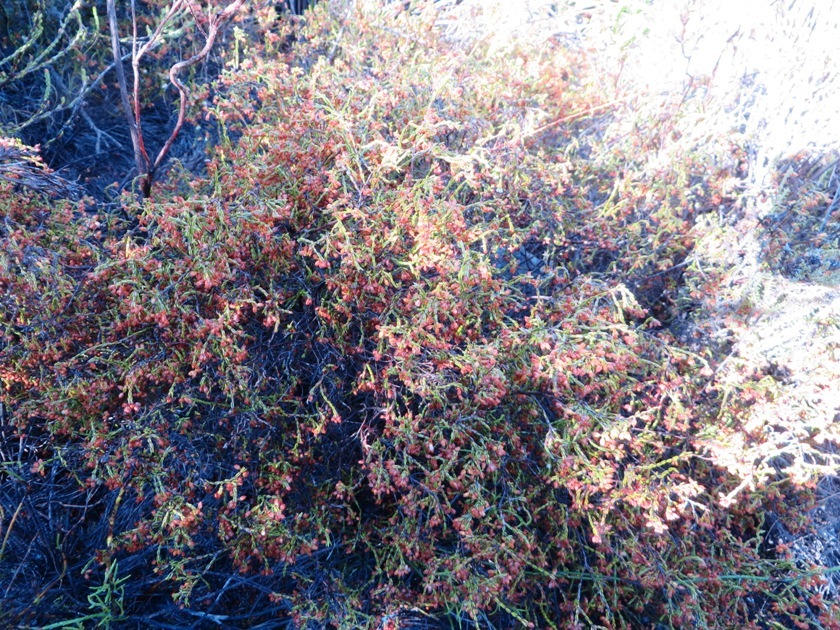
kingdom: Plantae
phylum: Tracheophyta
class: Magnoliopsida
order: Ericales
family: Ericaceae
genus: Erica
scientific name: Erica multiflexuosa
